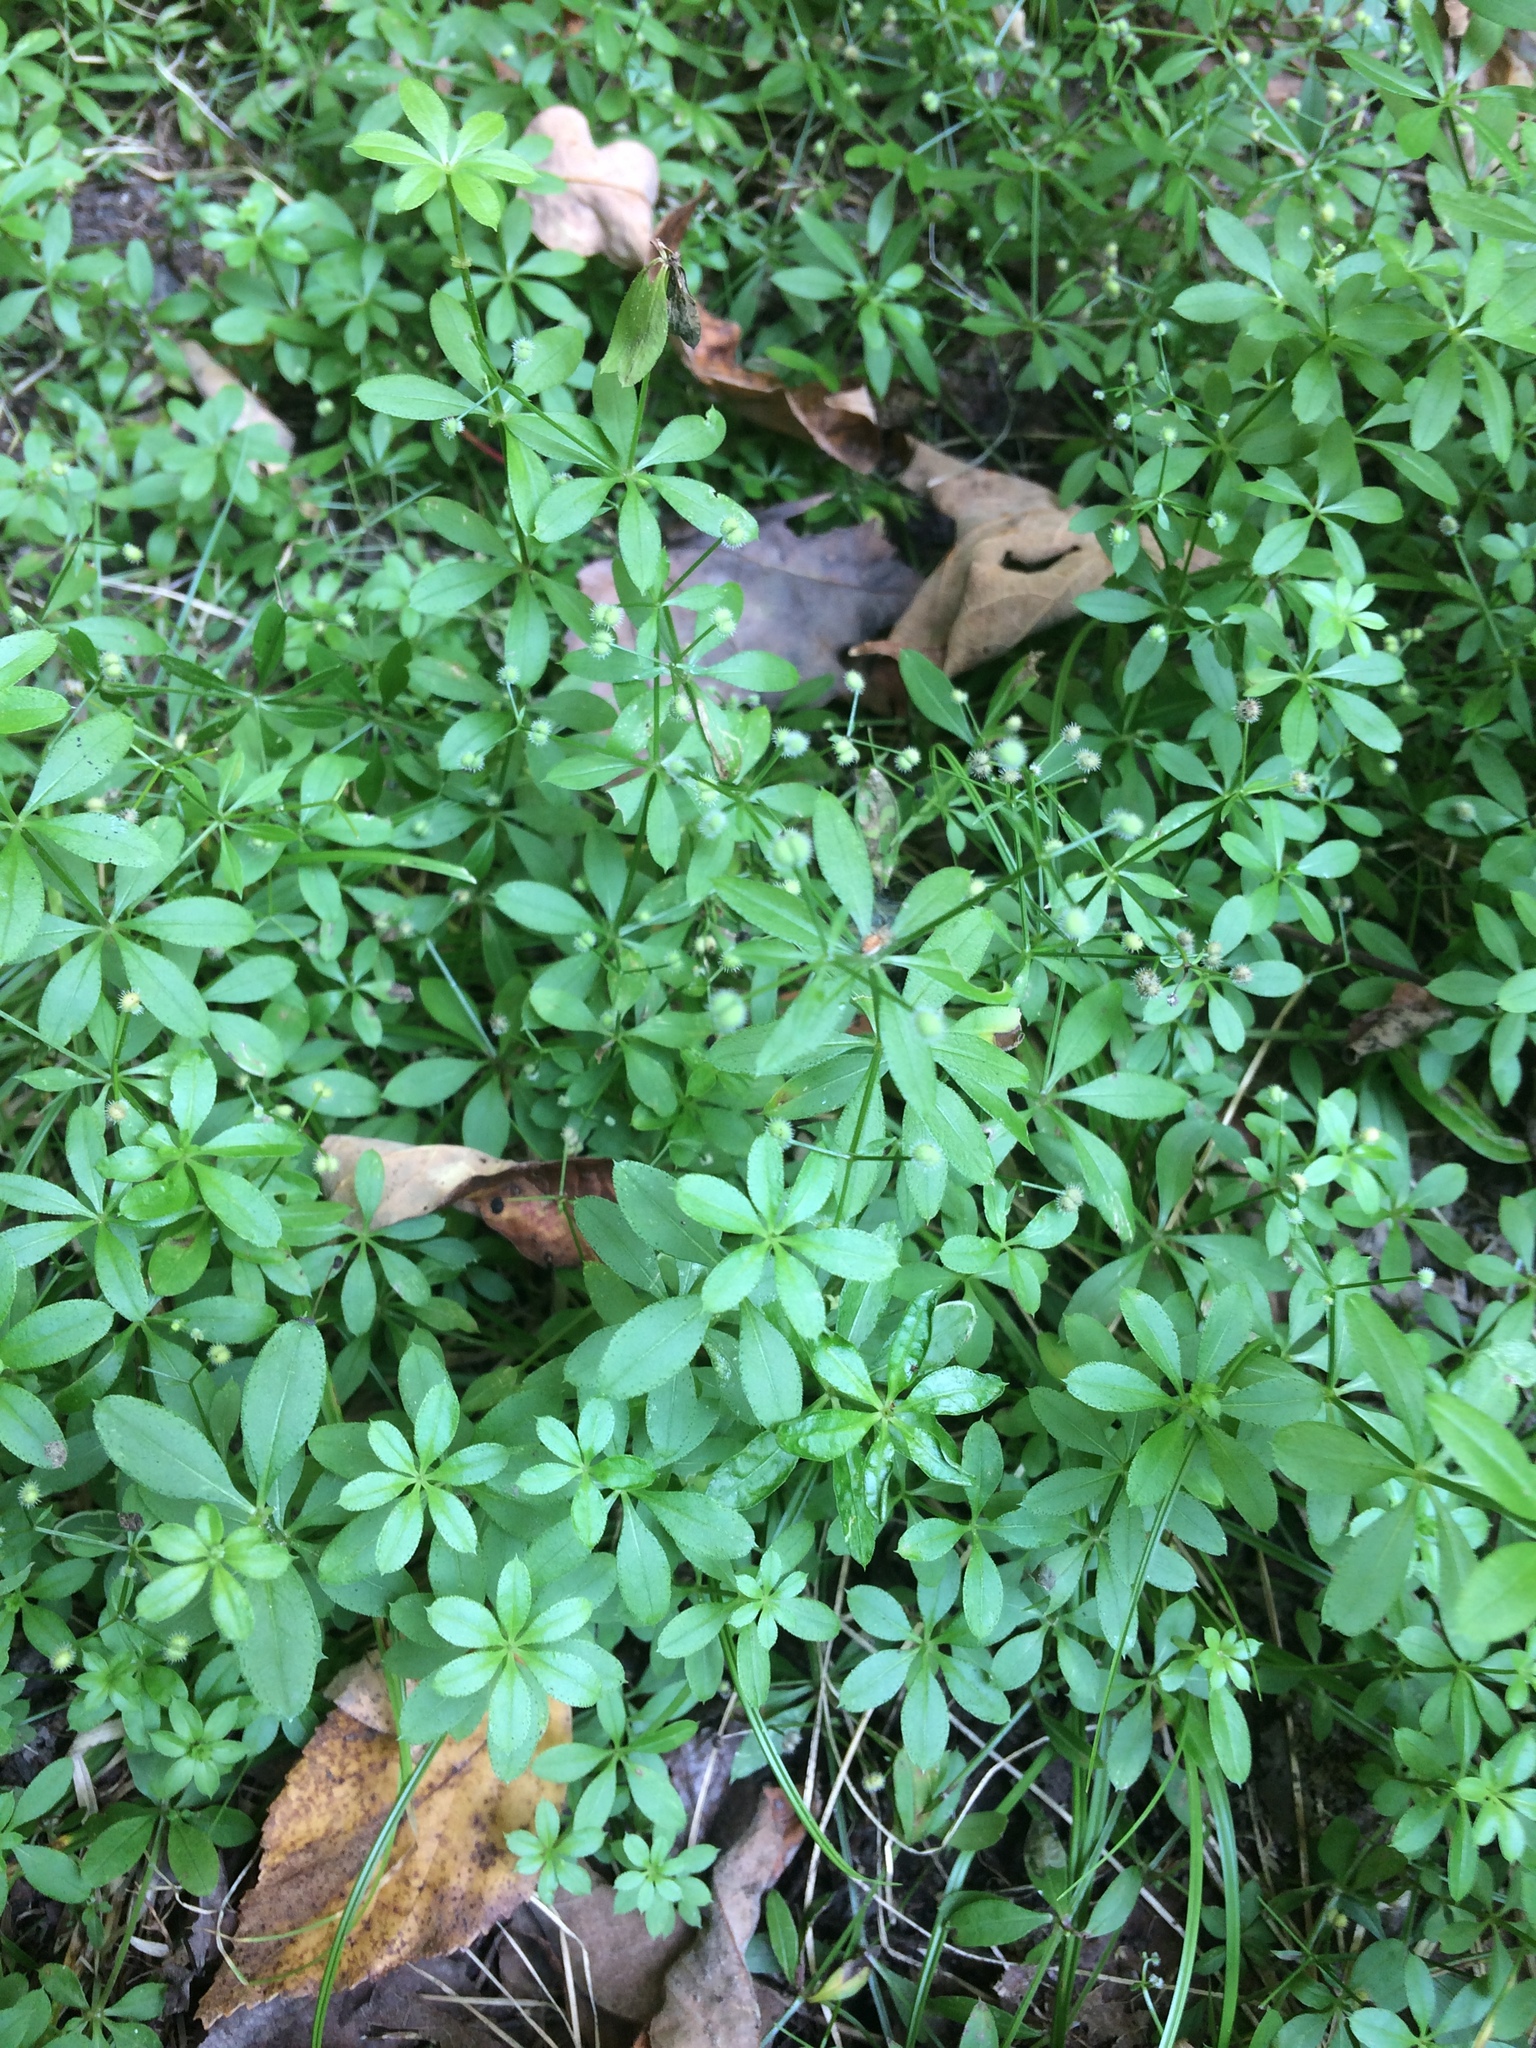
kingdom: Plantae
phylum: Tracheophyta
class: Magnoliopsida
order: Gentianales
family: Rubiaceae
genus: Galium
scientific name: Galium triflorum
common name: Fragrant bedstraw
